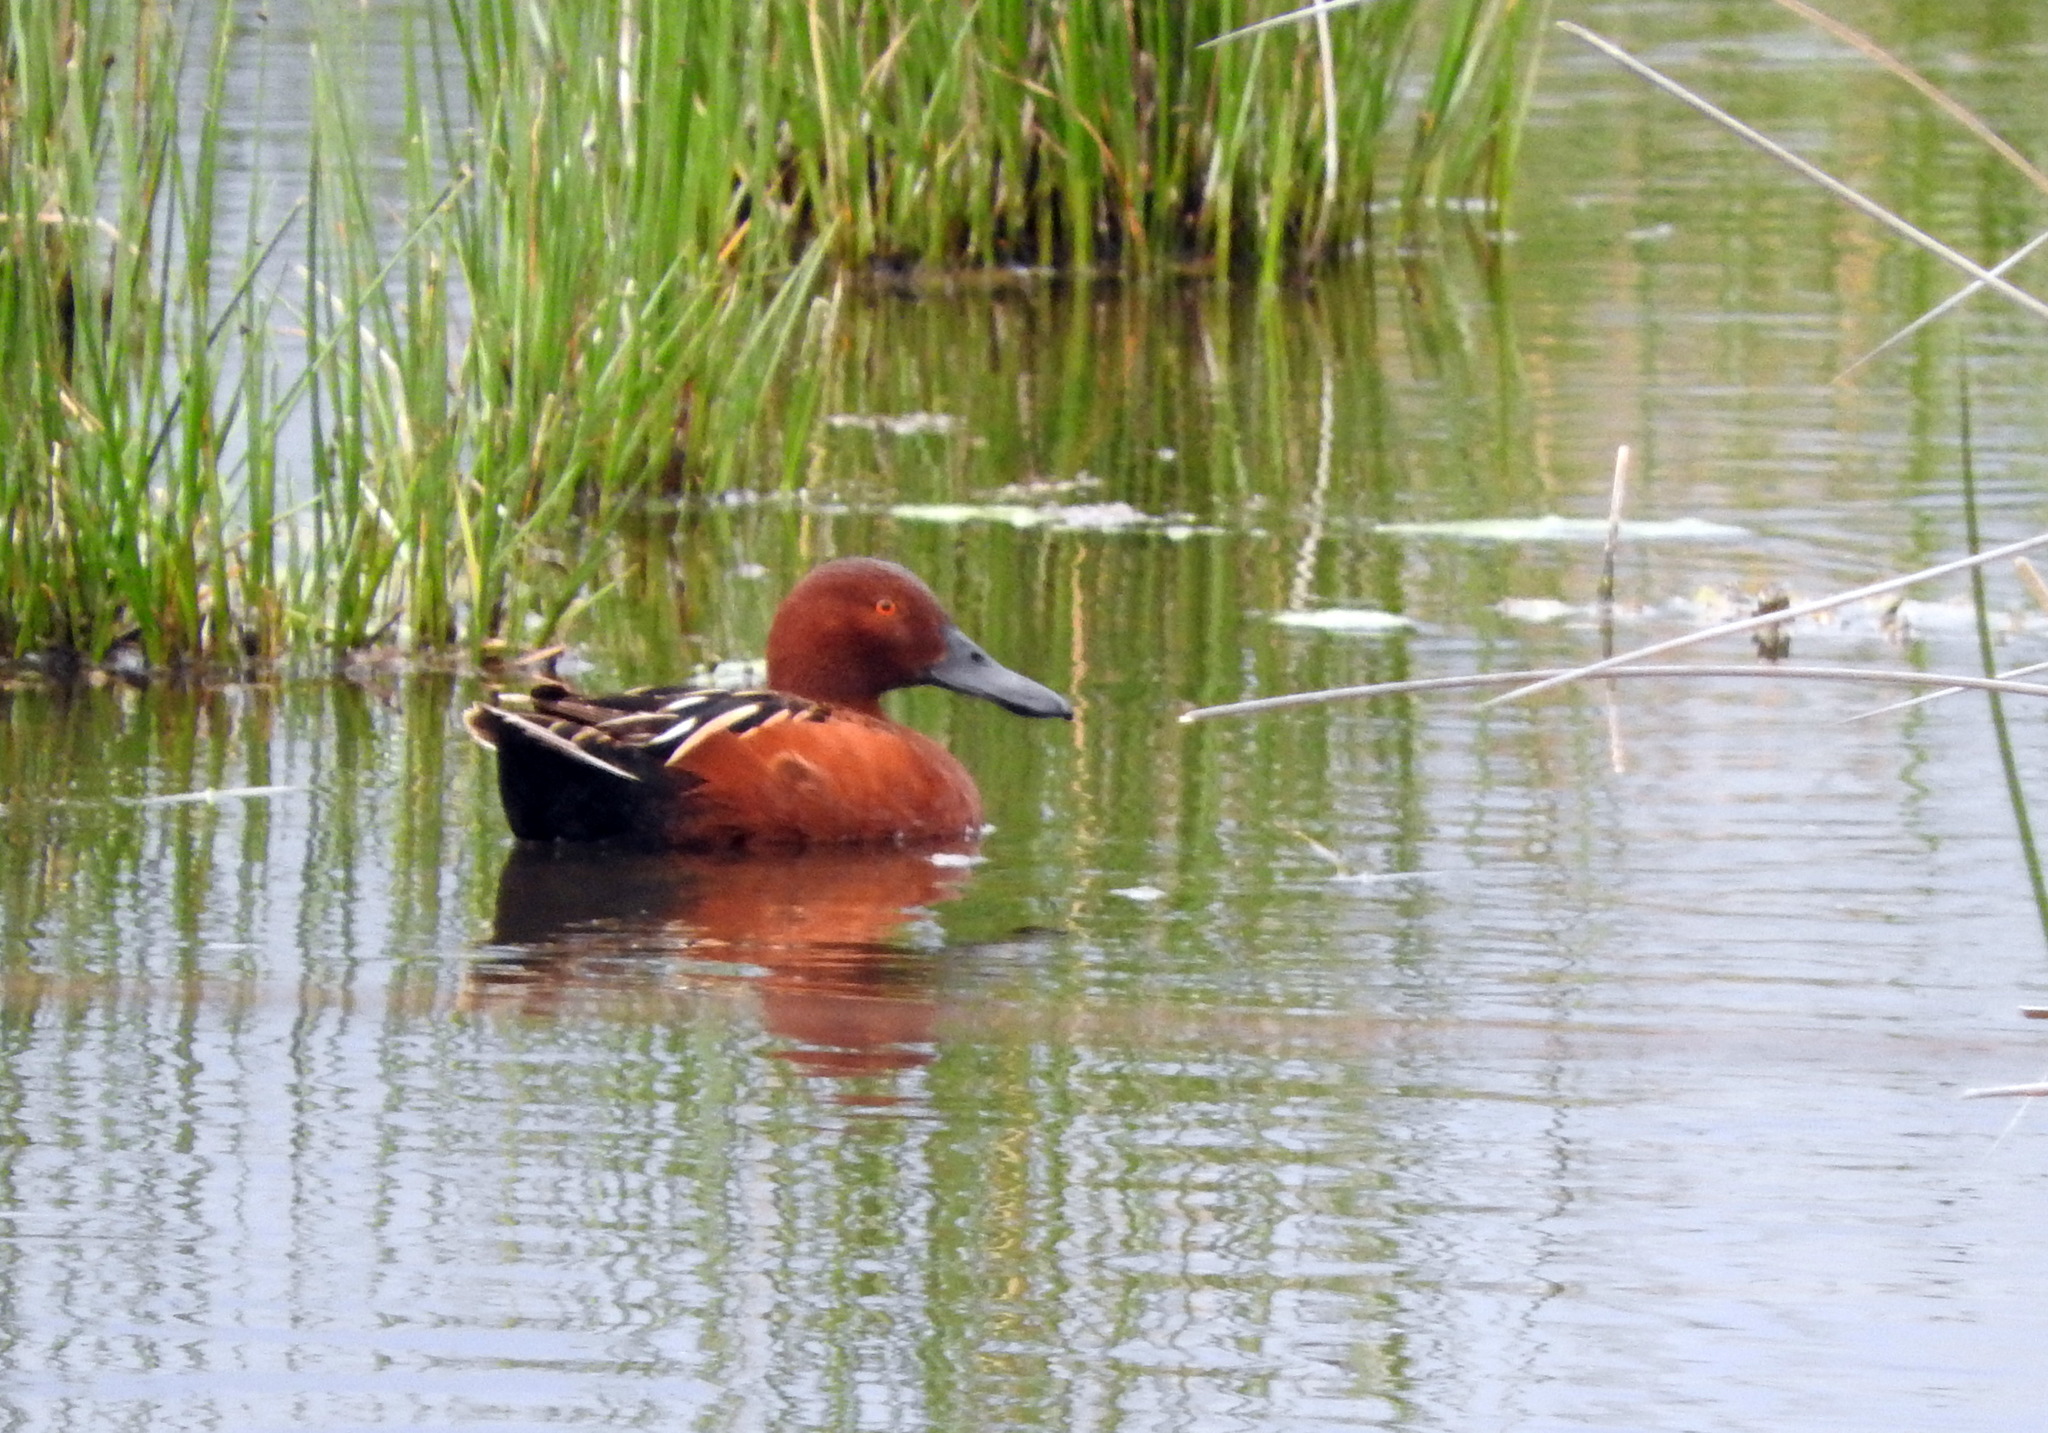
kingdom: Animalia
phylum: Chordata
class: Aves
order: Anseriformes
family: Anatidae
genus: Spatula
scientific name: Spatula cyanoptera
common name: Cinnamon teal
